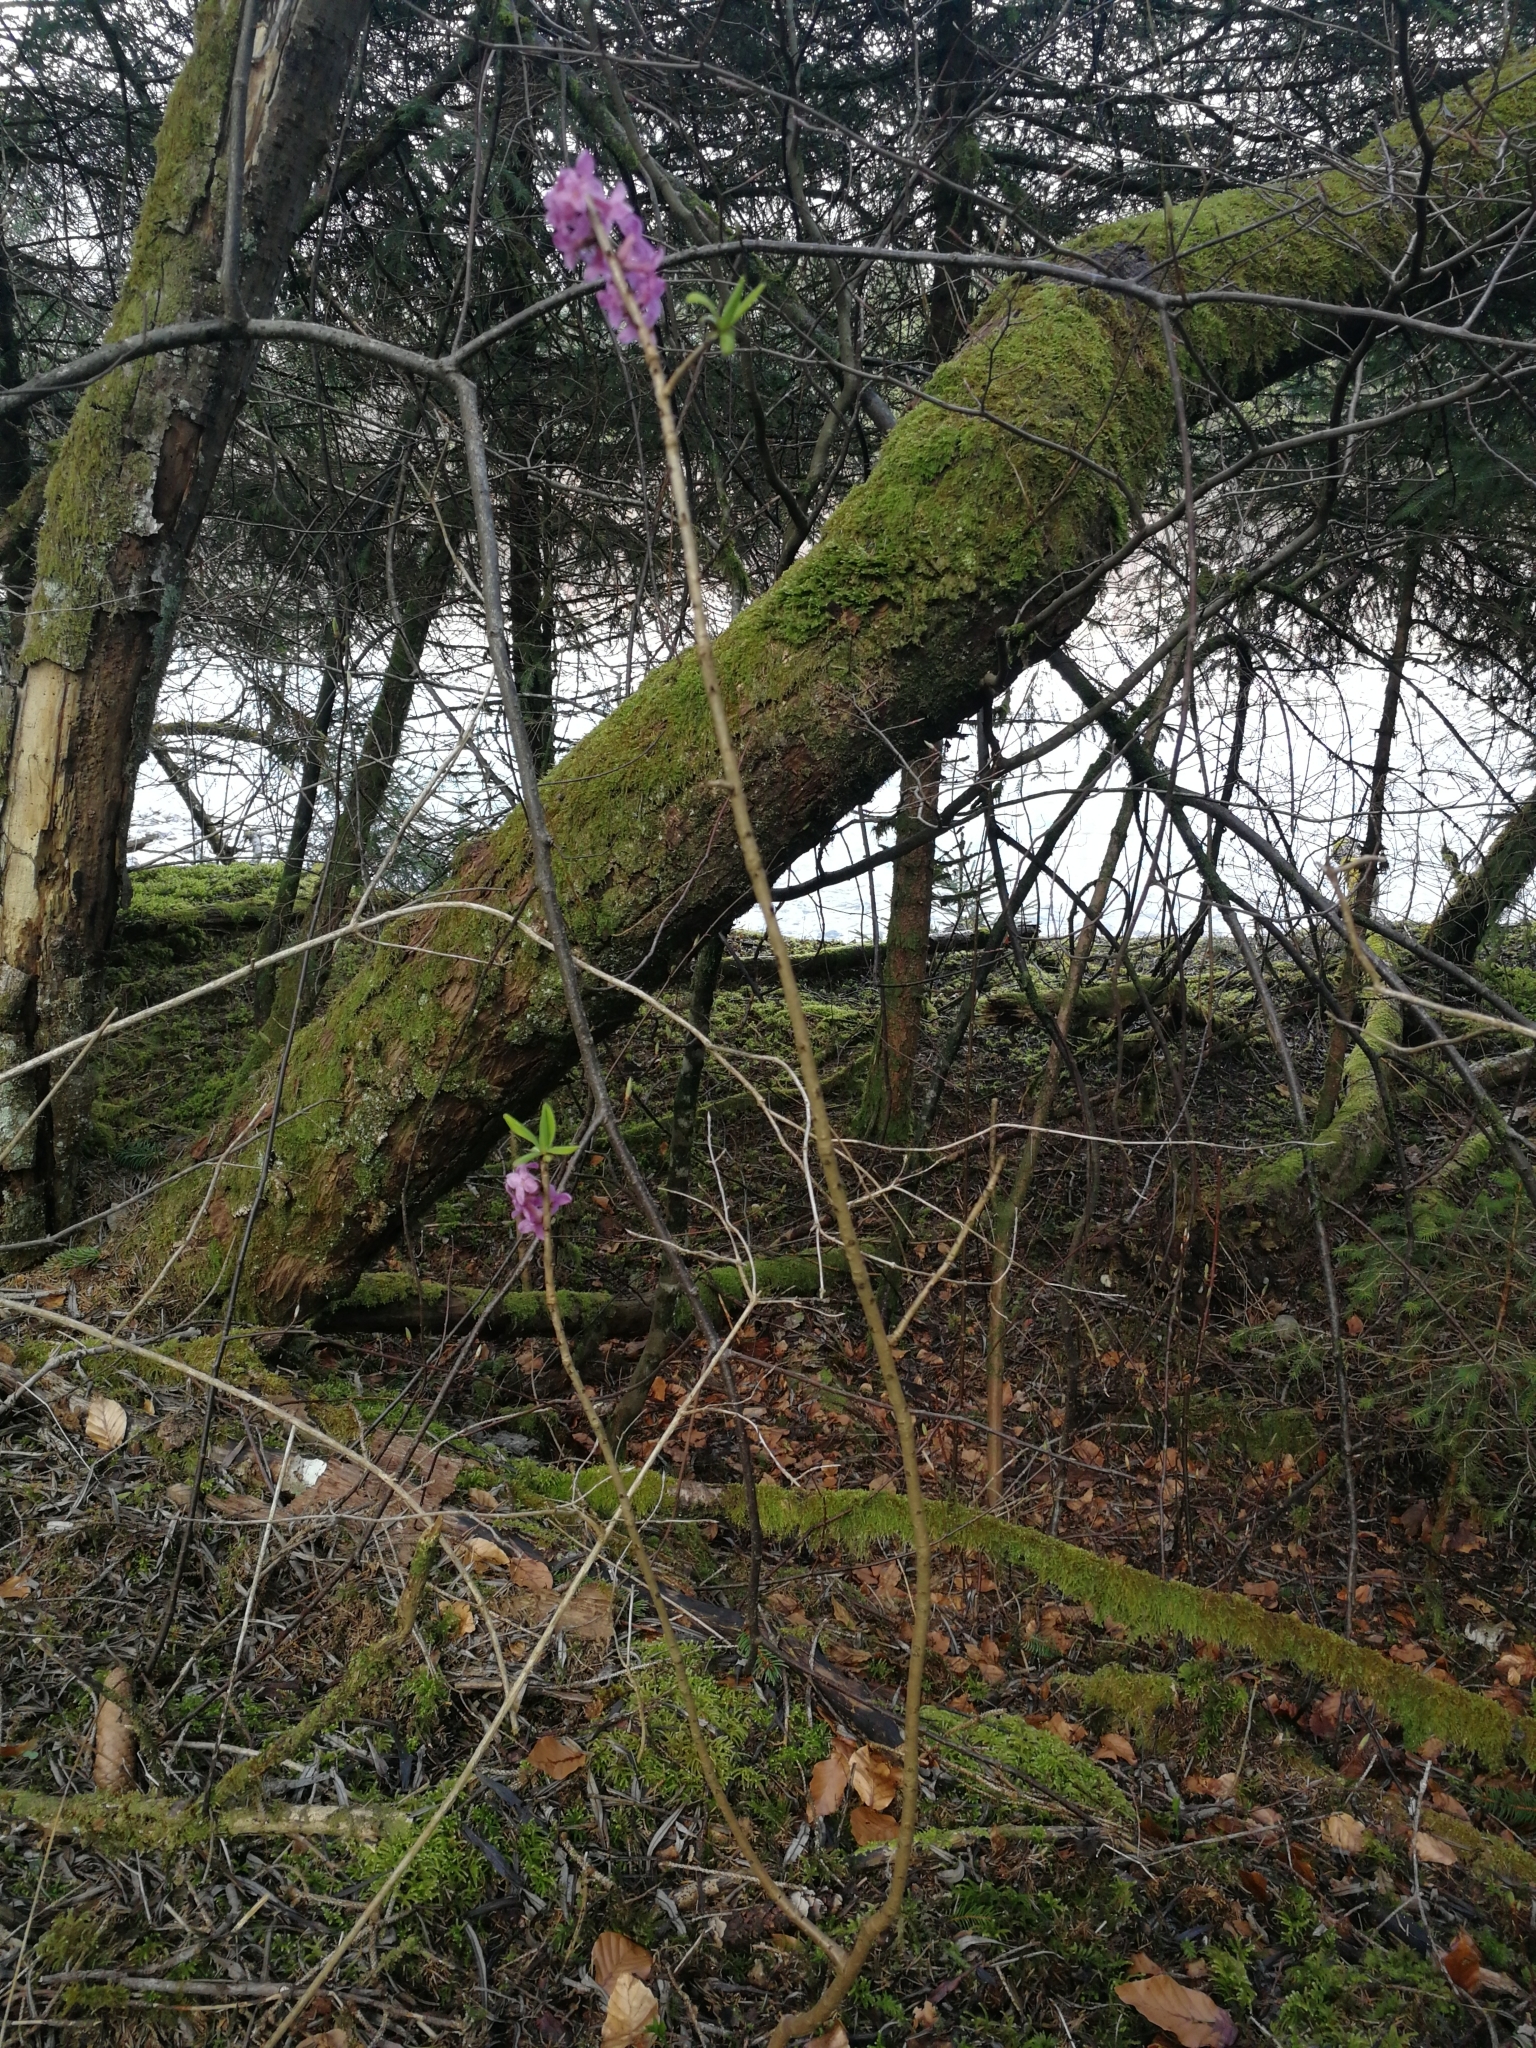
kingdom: Plantae
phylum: Tracheophyta
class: Magnoliopsida
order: Malvales
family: Thymelaeaceae
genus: Daphne
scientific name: Daphne mezereum
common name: Mezereon
